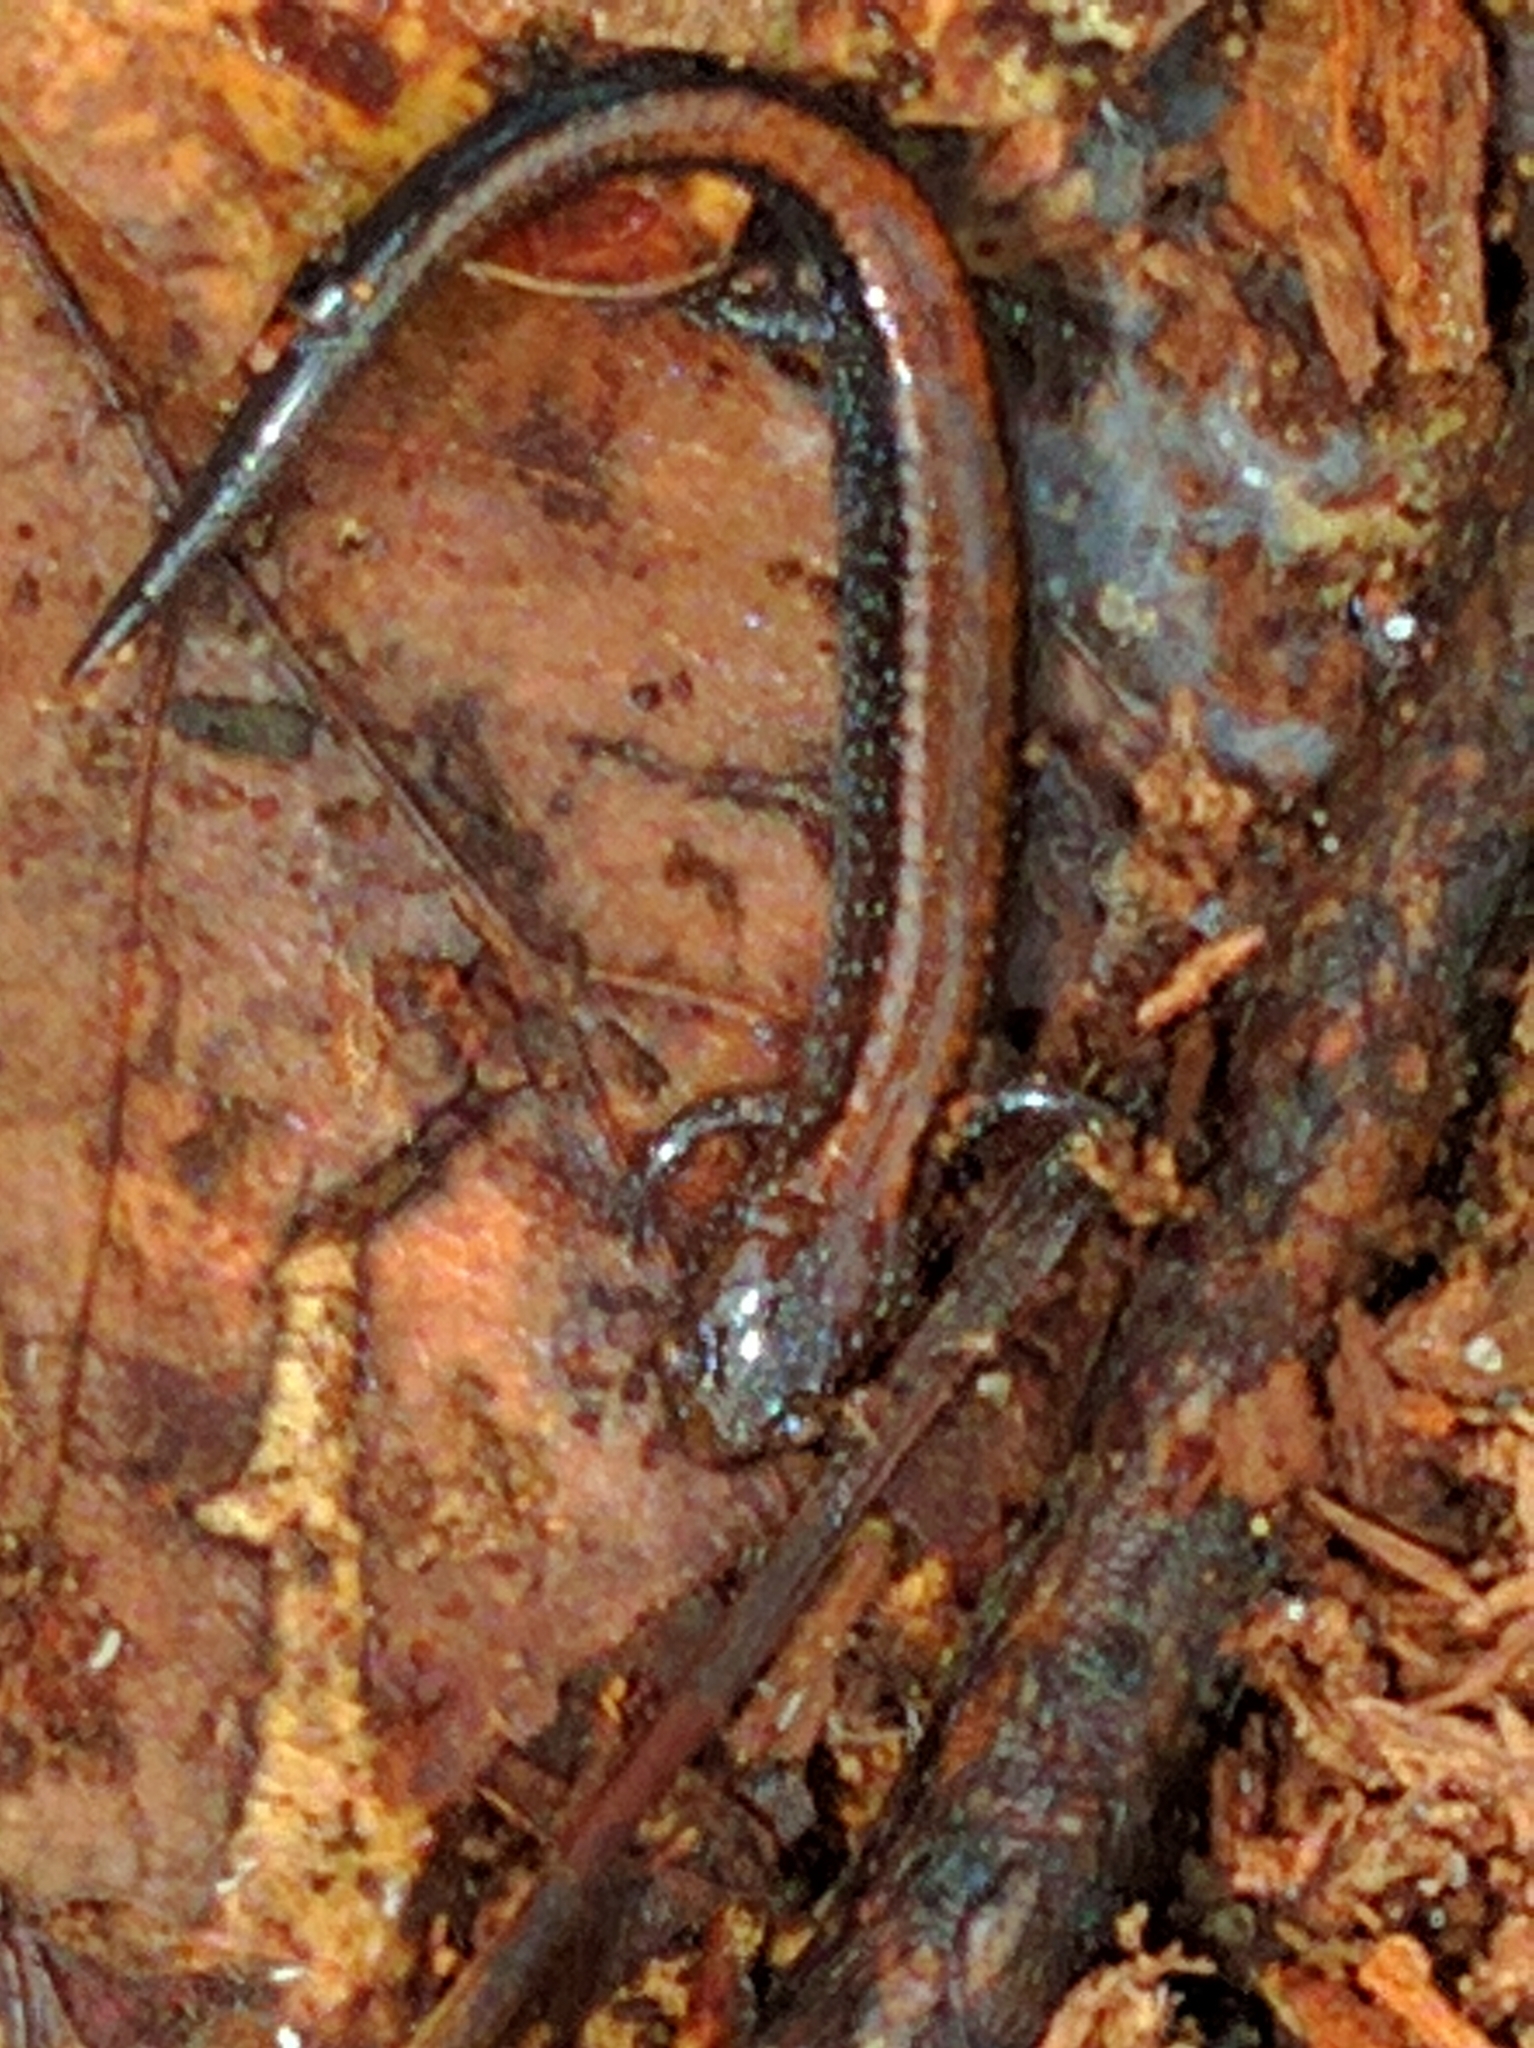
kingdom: Animalia
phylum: Chordata
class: Amphibia
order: Caudata
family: Plethodontidae
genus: Plethodon
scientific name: Plethodon cinereus
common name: Redback salamander
